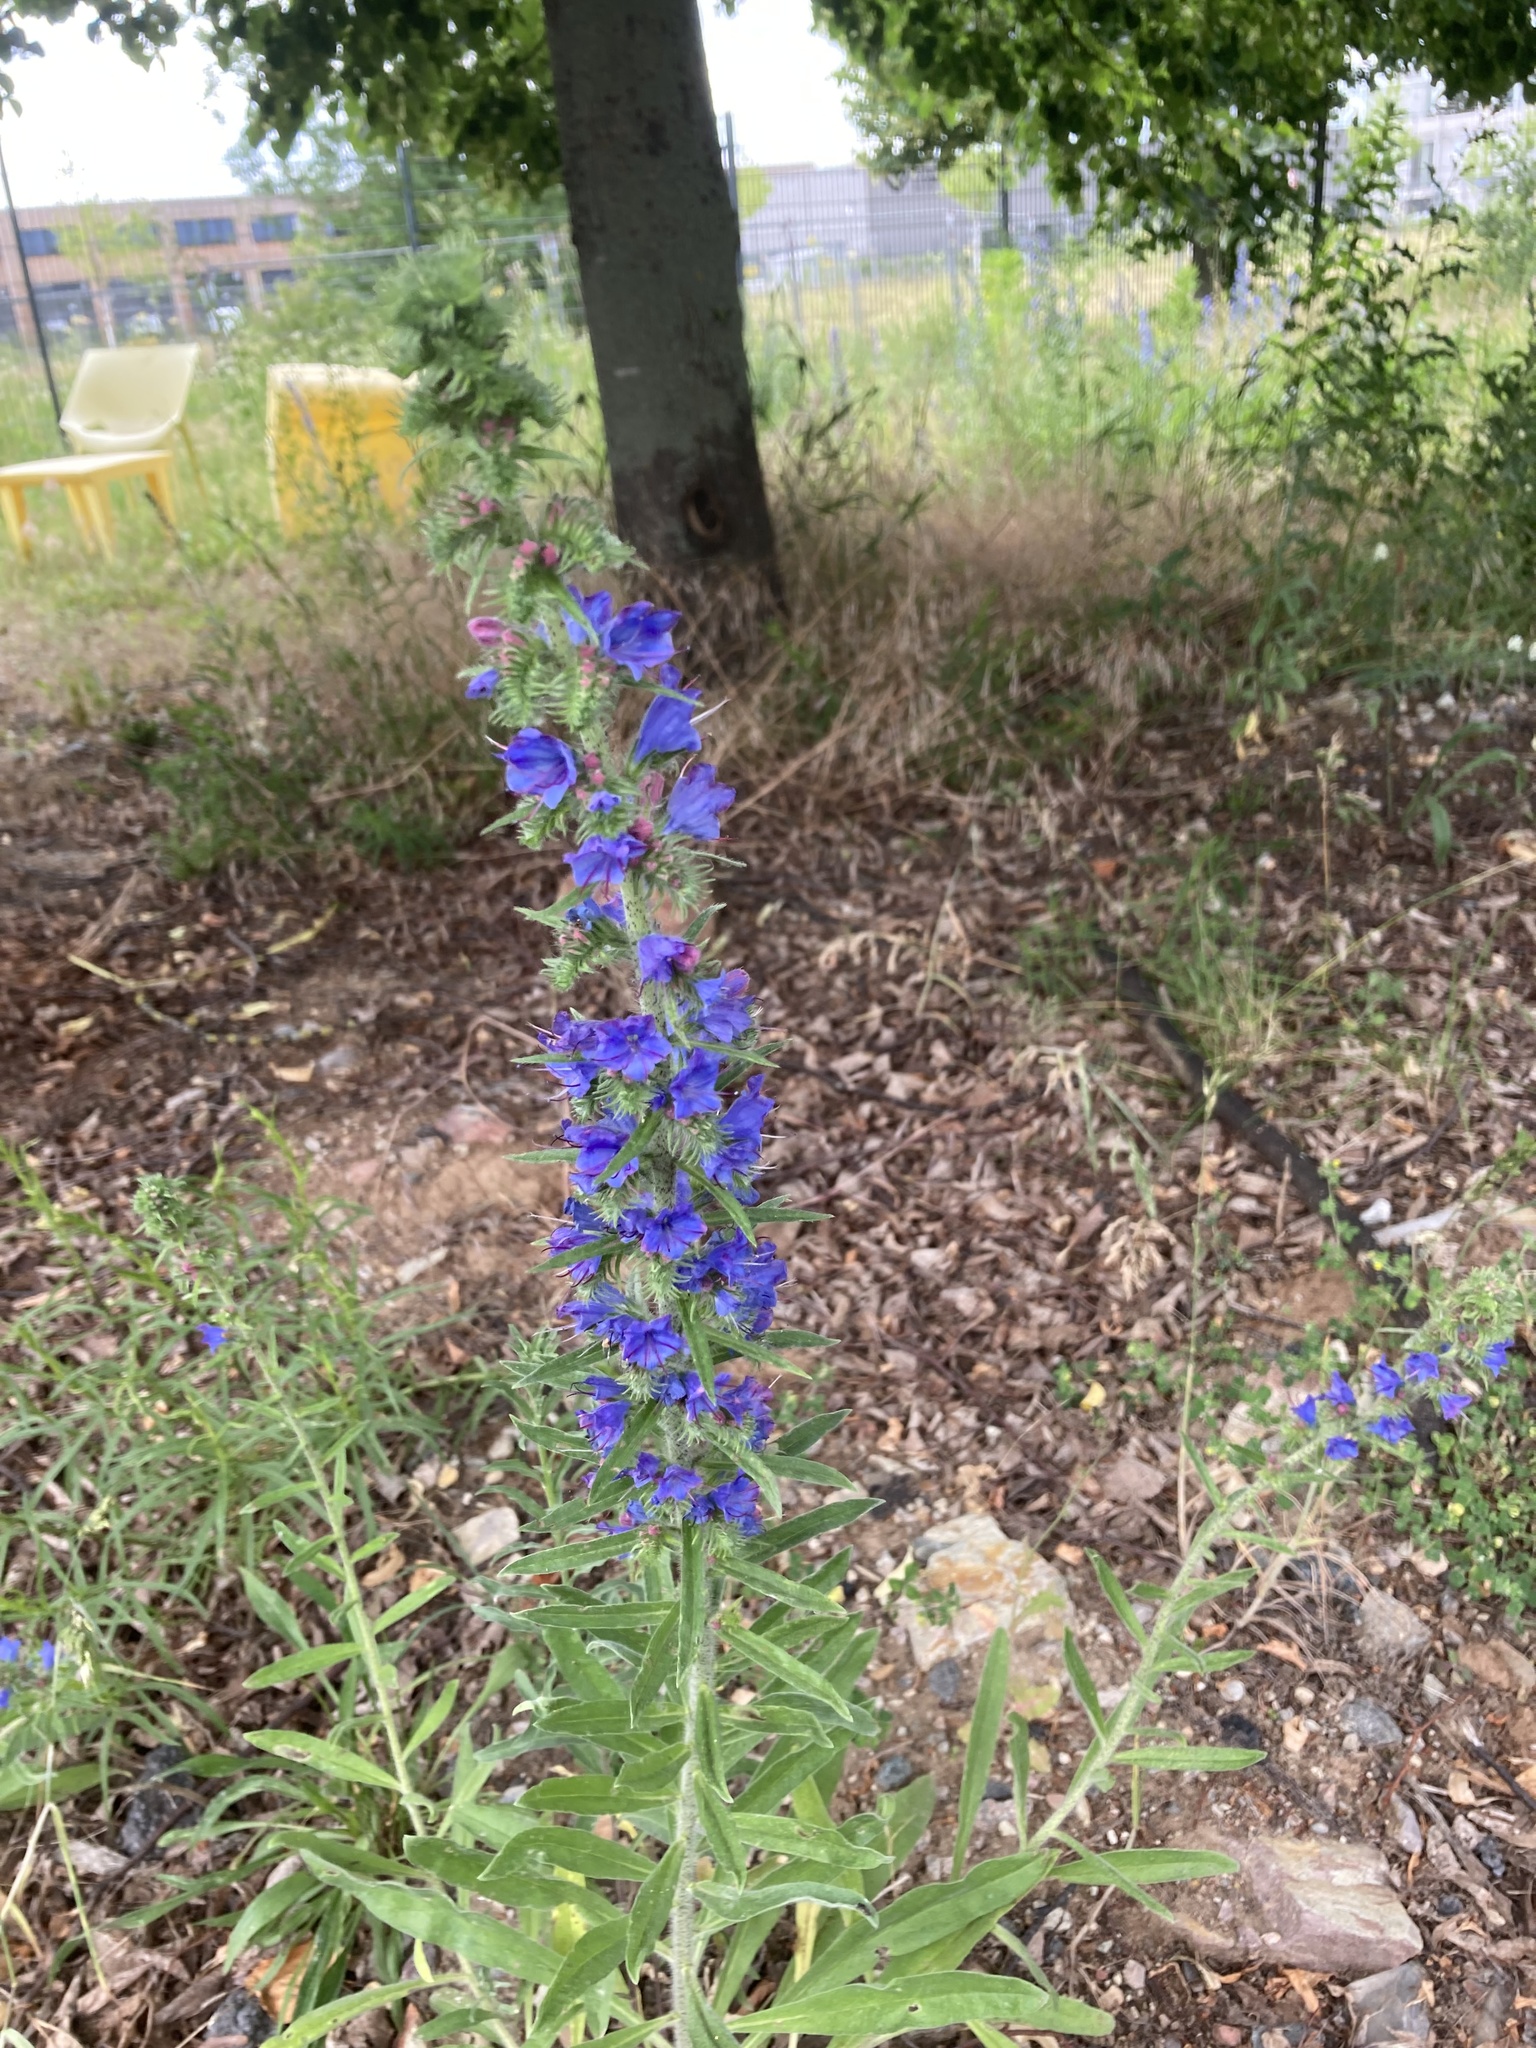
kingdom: Plantae
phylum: Tracheophyta
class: Magnoliopsida
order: Boraginales
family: Boraginaceae
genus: Echium
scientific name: Echium vulgare
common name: Common viper's bugloss
